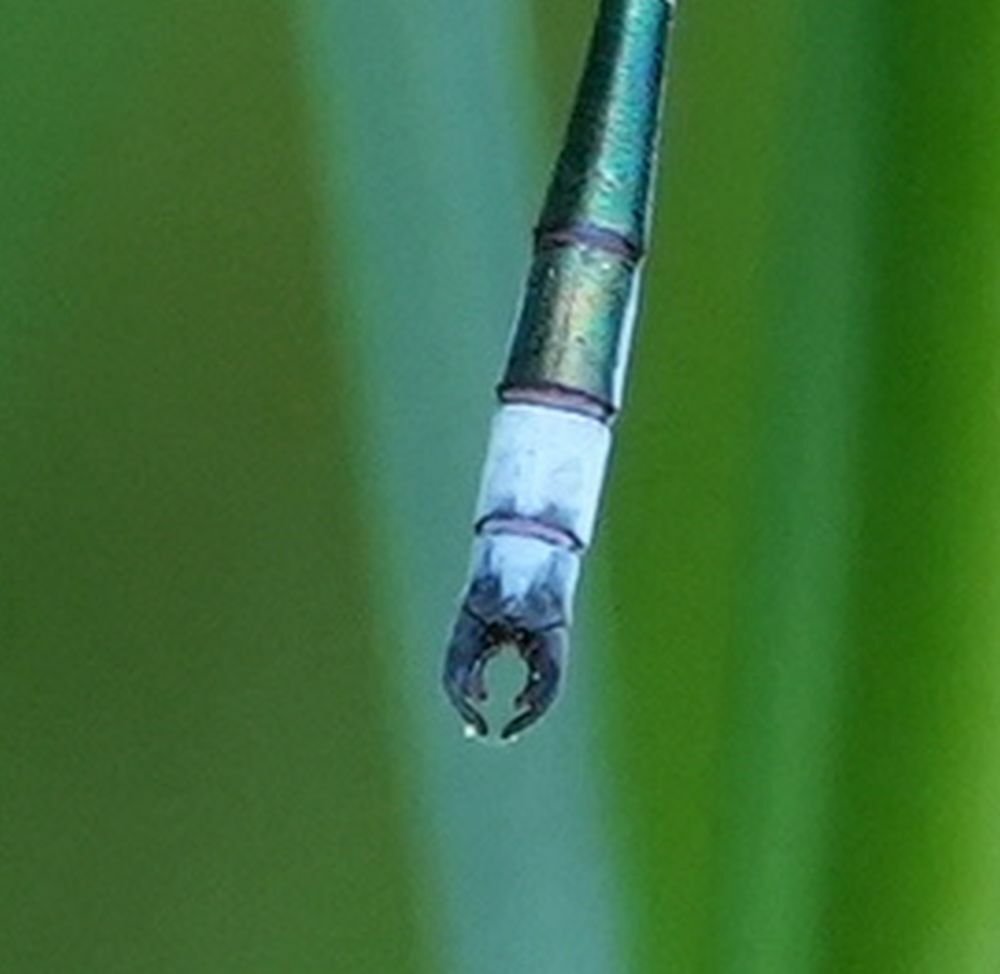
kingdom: Animalia
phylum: Arthropoda
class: Insecta
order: Odonata
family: Lestidae
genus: Lestes
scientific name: Lestes dryas
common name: Scarce emerald damselfly
